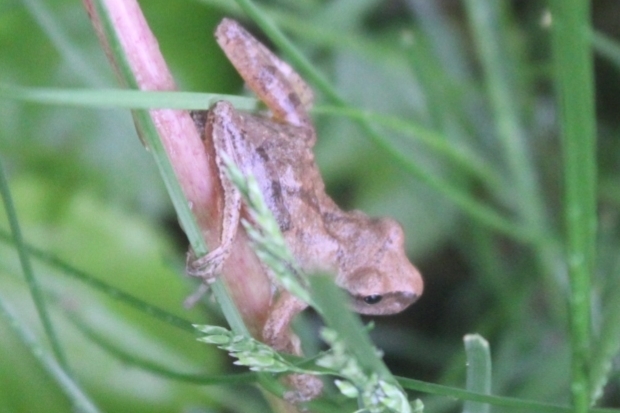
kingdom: Animalia
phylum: Chordata
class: Amphibia
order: Anura
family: Hylidae
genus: Pseudacris
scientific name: Pseudacris crucifer
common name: Spring peeper
